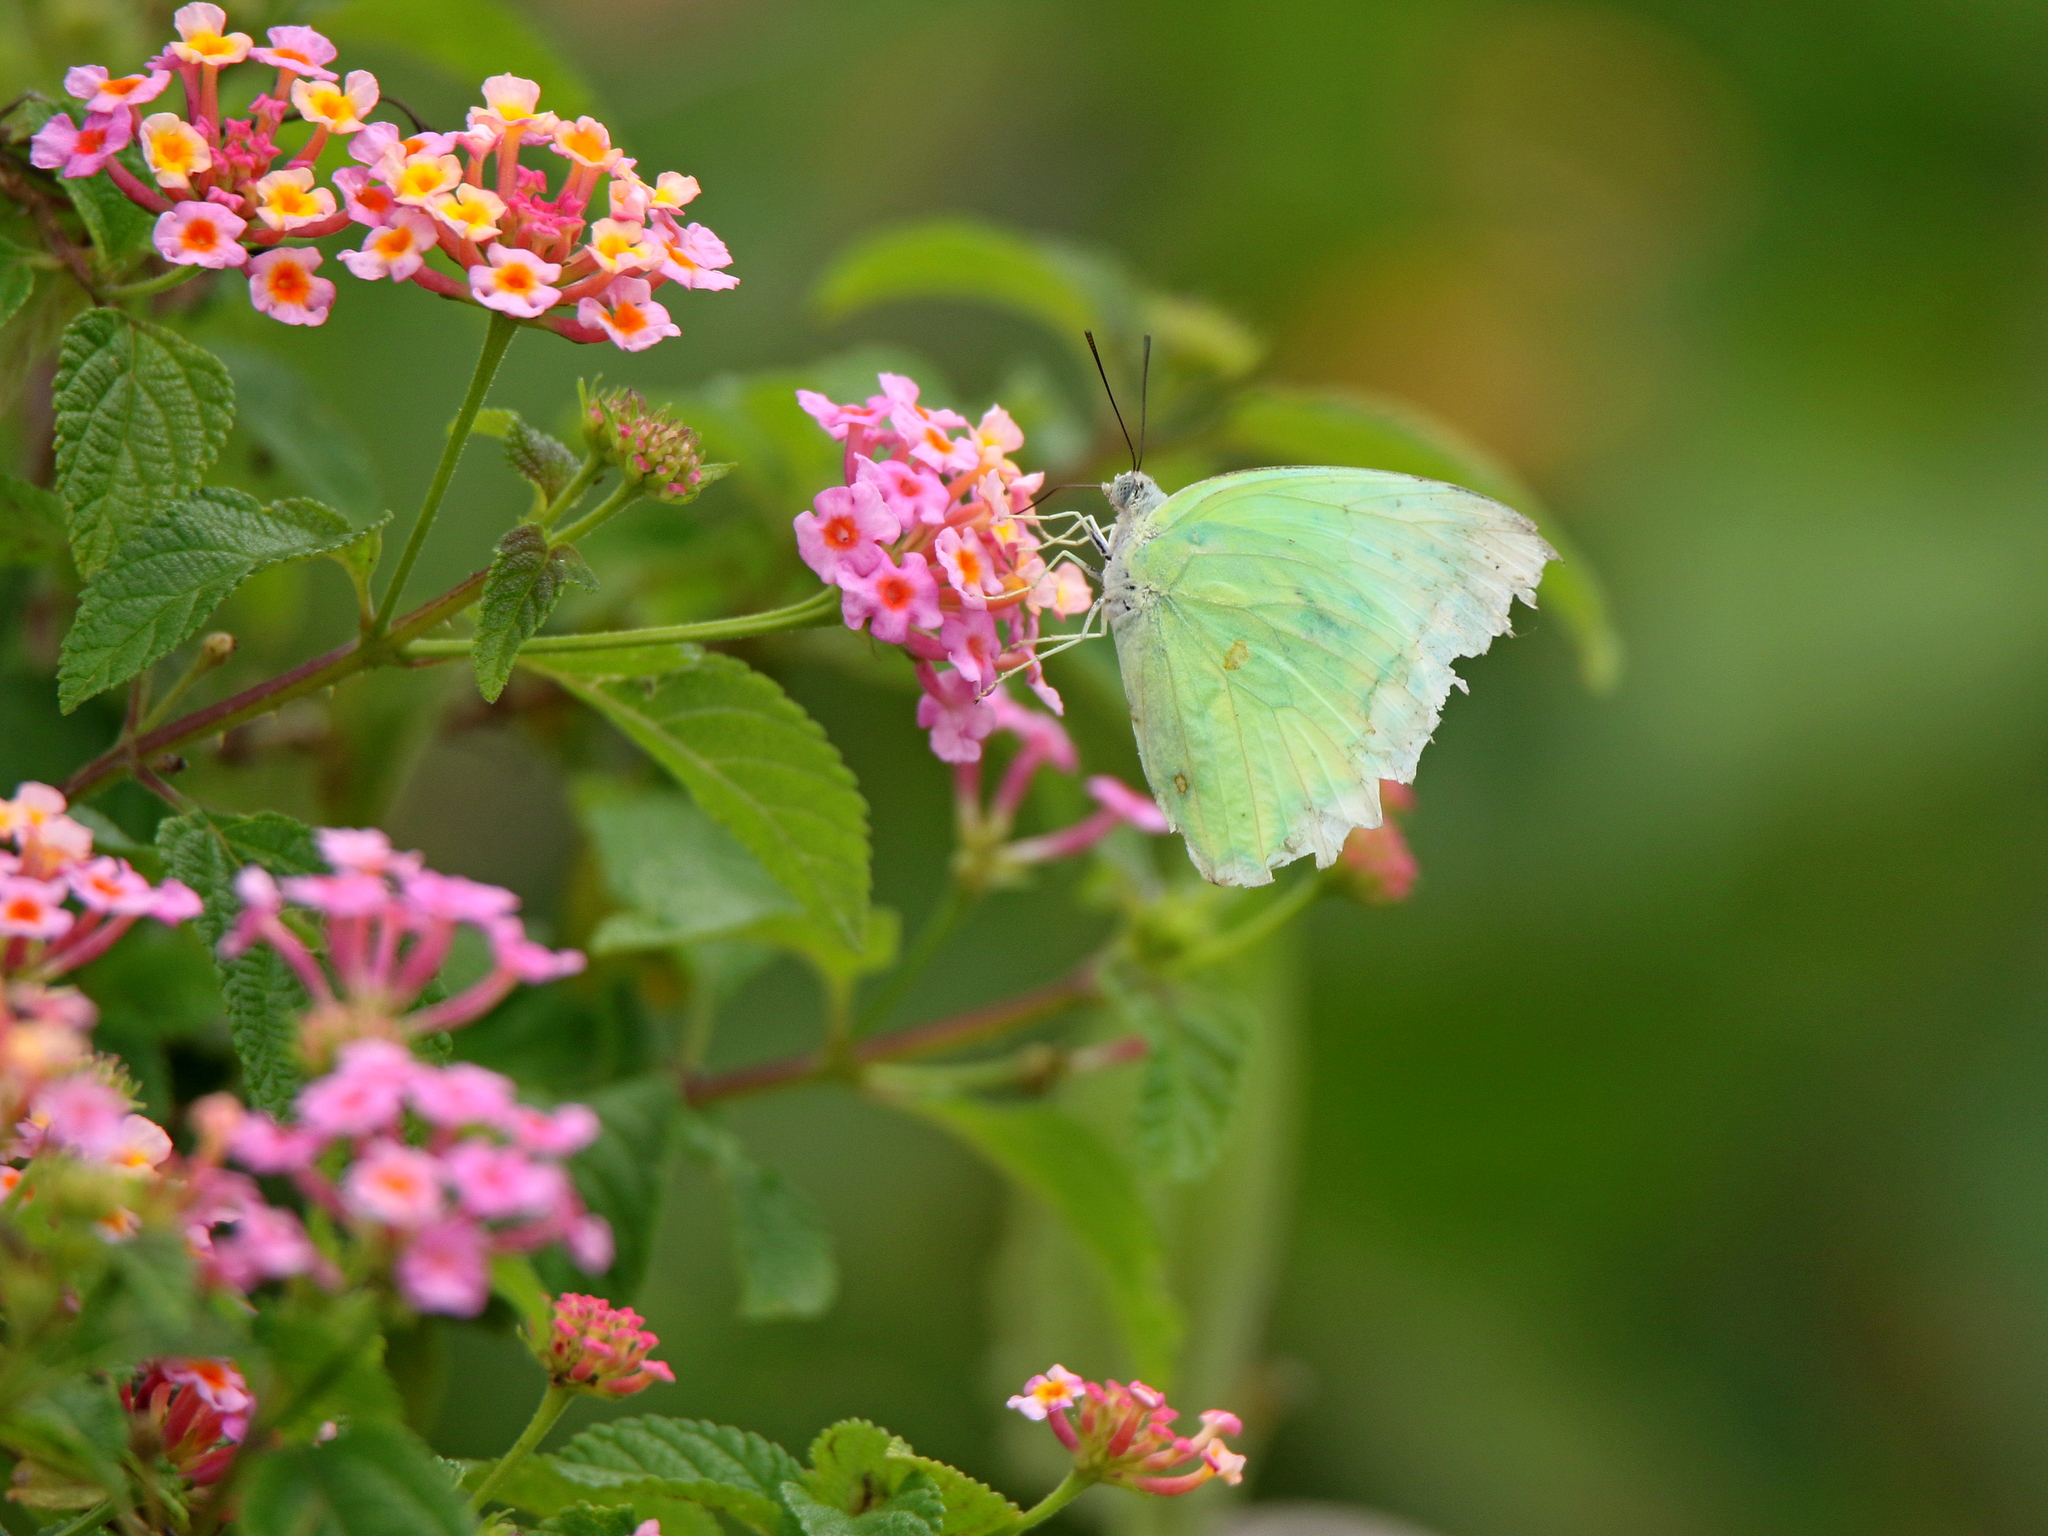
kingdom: Animalia
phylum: Arthropoda
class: Insecta
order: Lepidoptera
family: Pieridae
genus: Catopsilia
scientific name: Catopsilia pomona
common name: Common emigrant
